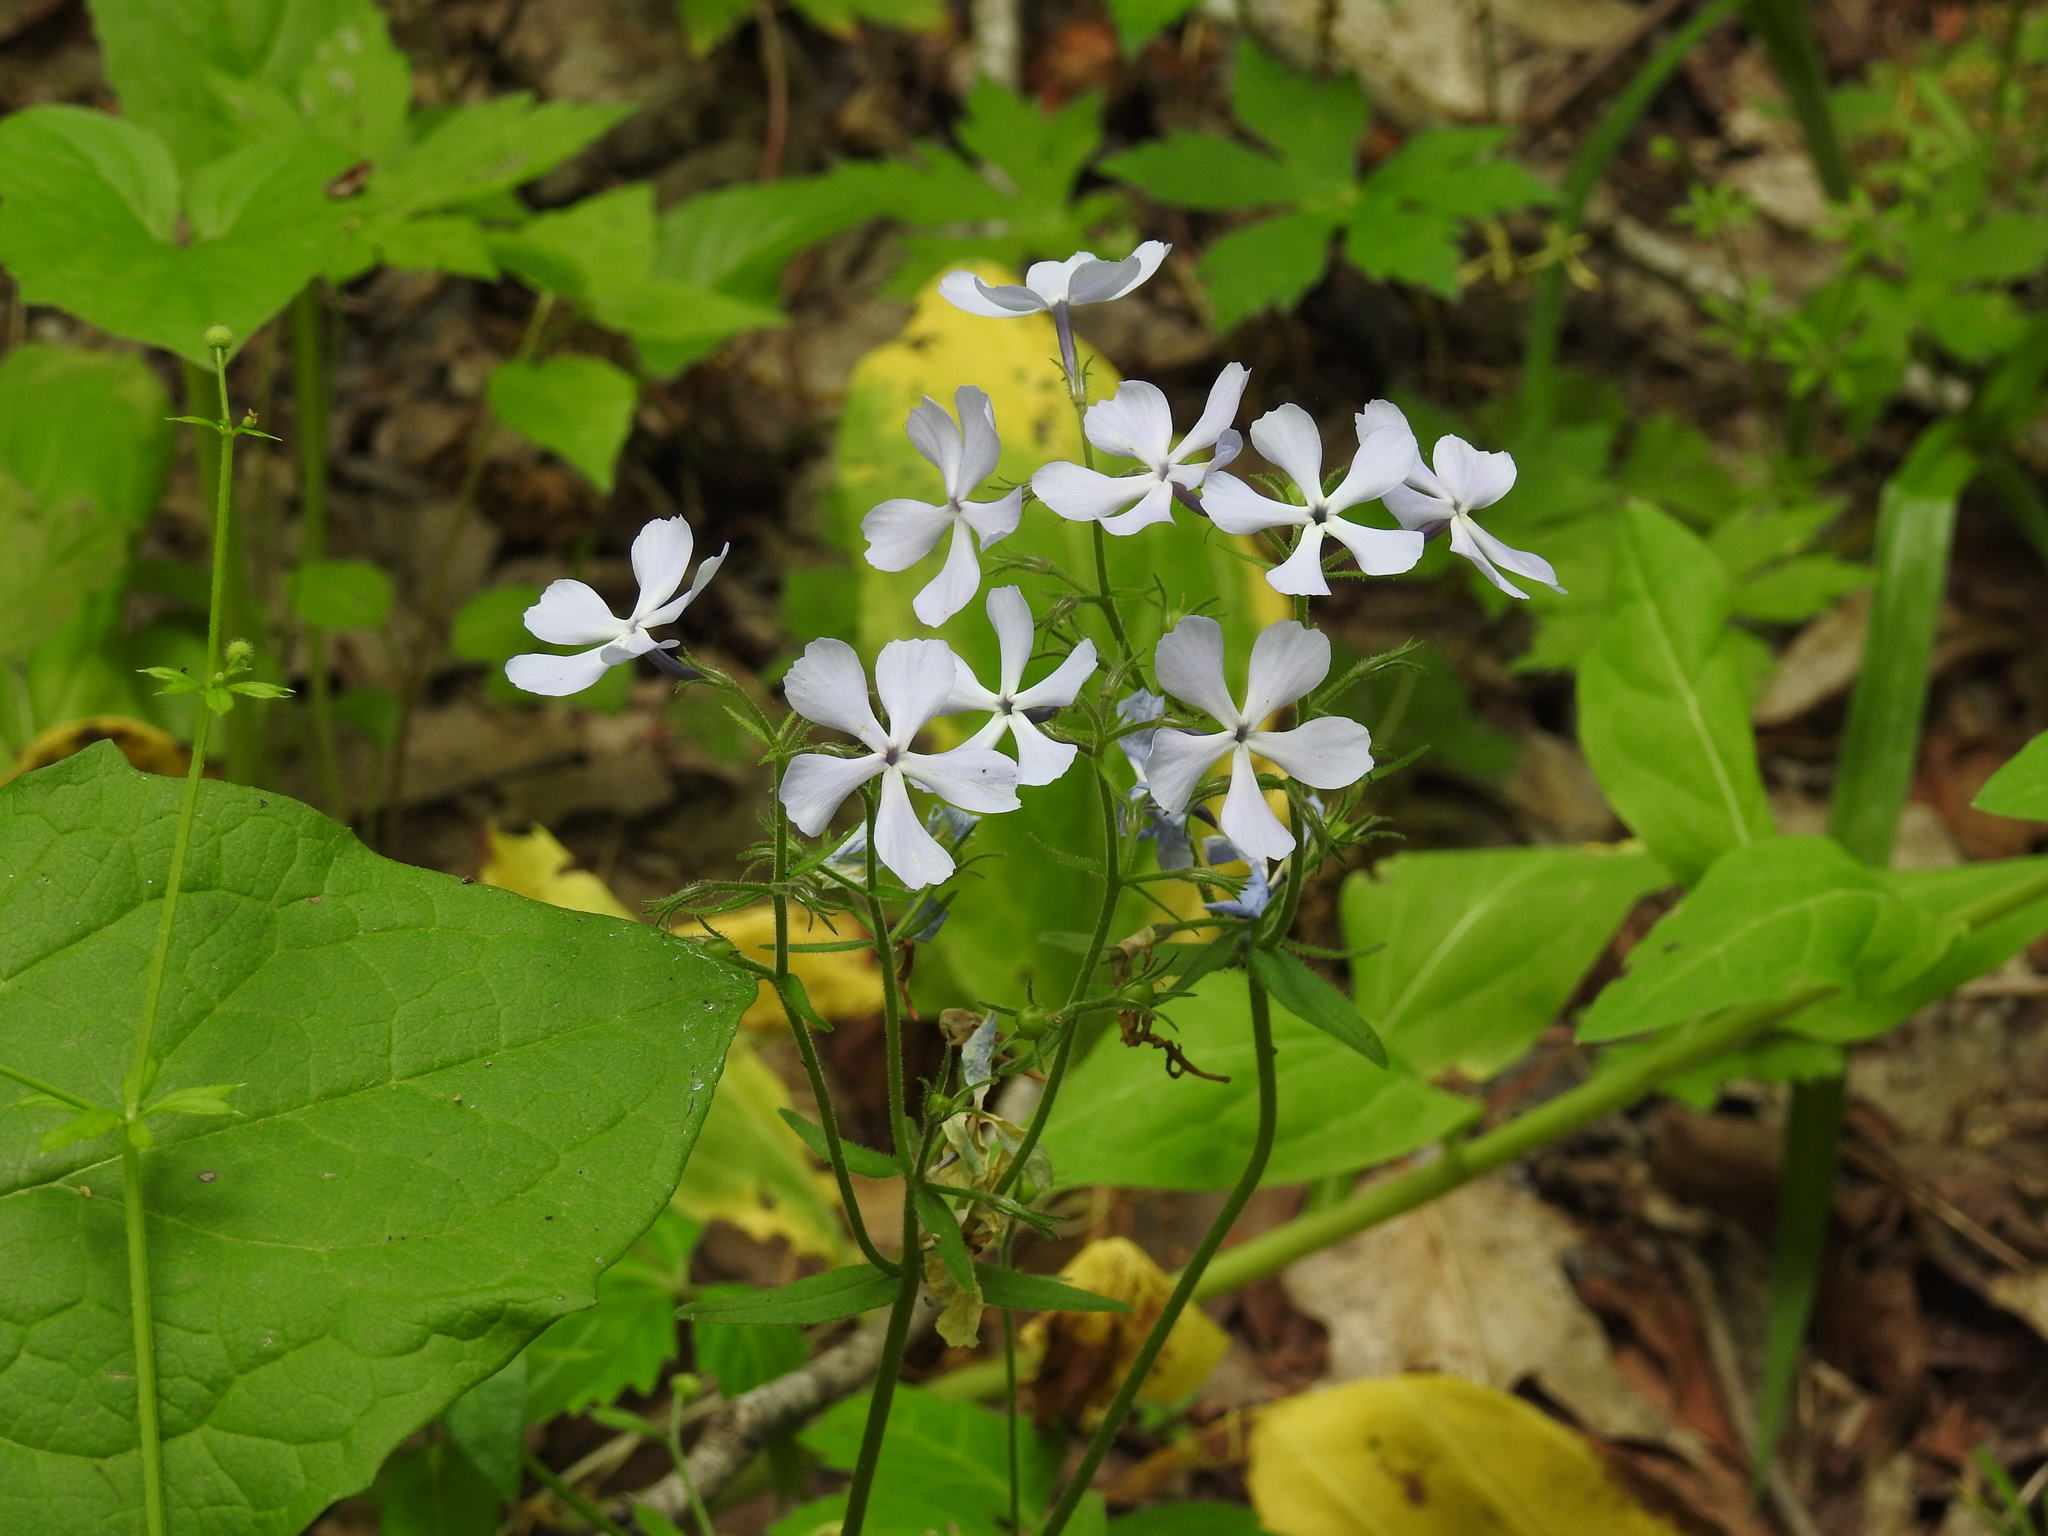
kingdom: Plantae
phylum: Tracheophyta
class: Magnoliopsida
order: Ericales
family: Polemoniaceae
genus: Phlox
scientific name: Phlox divaricata
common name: Blue phlox
